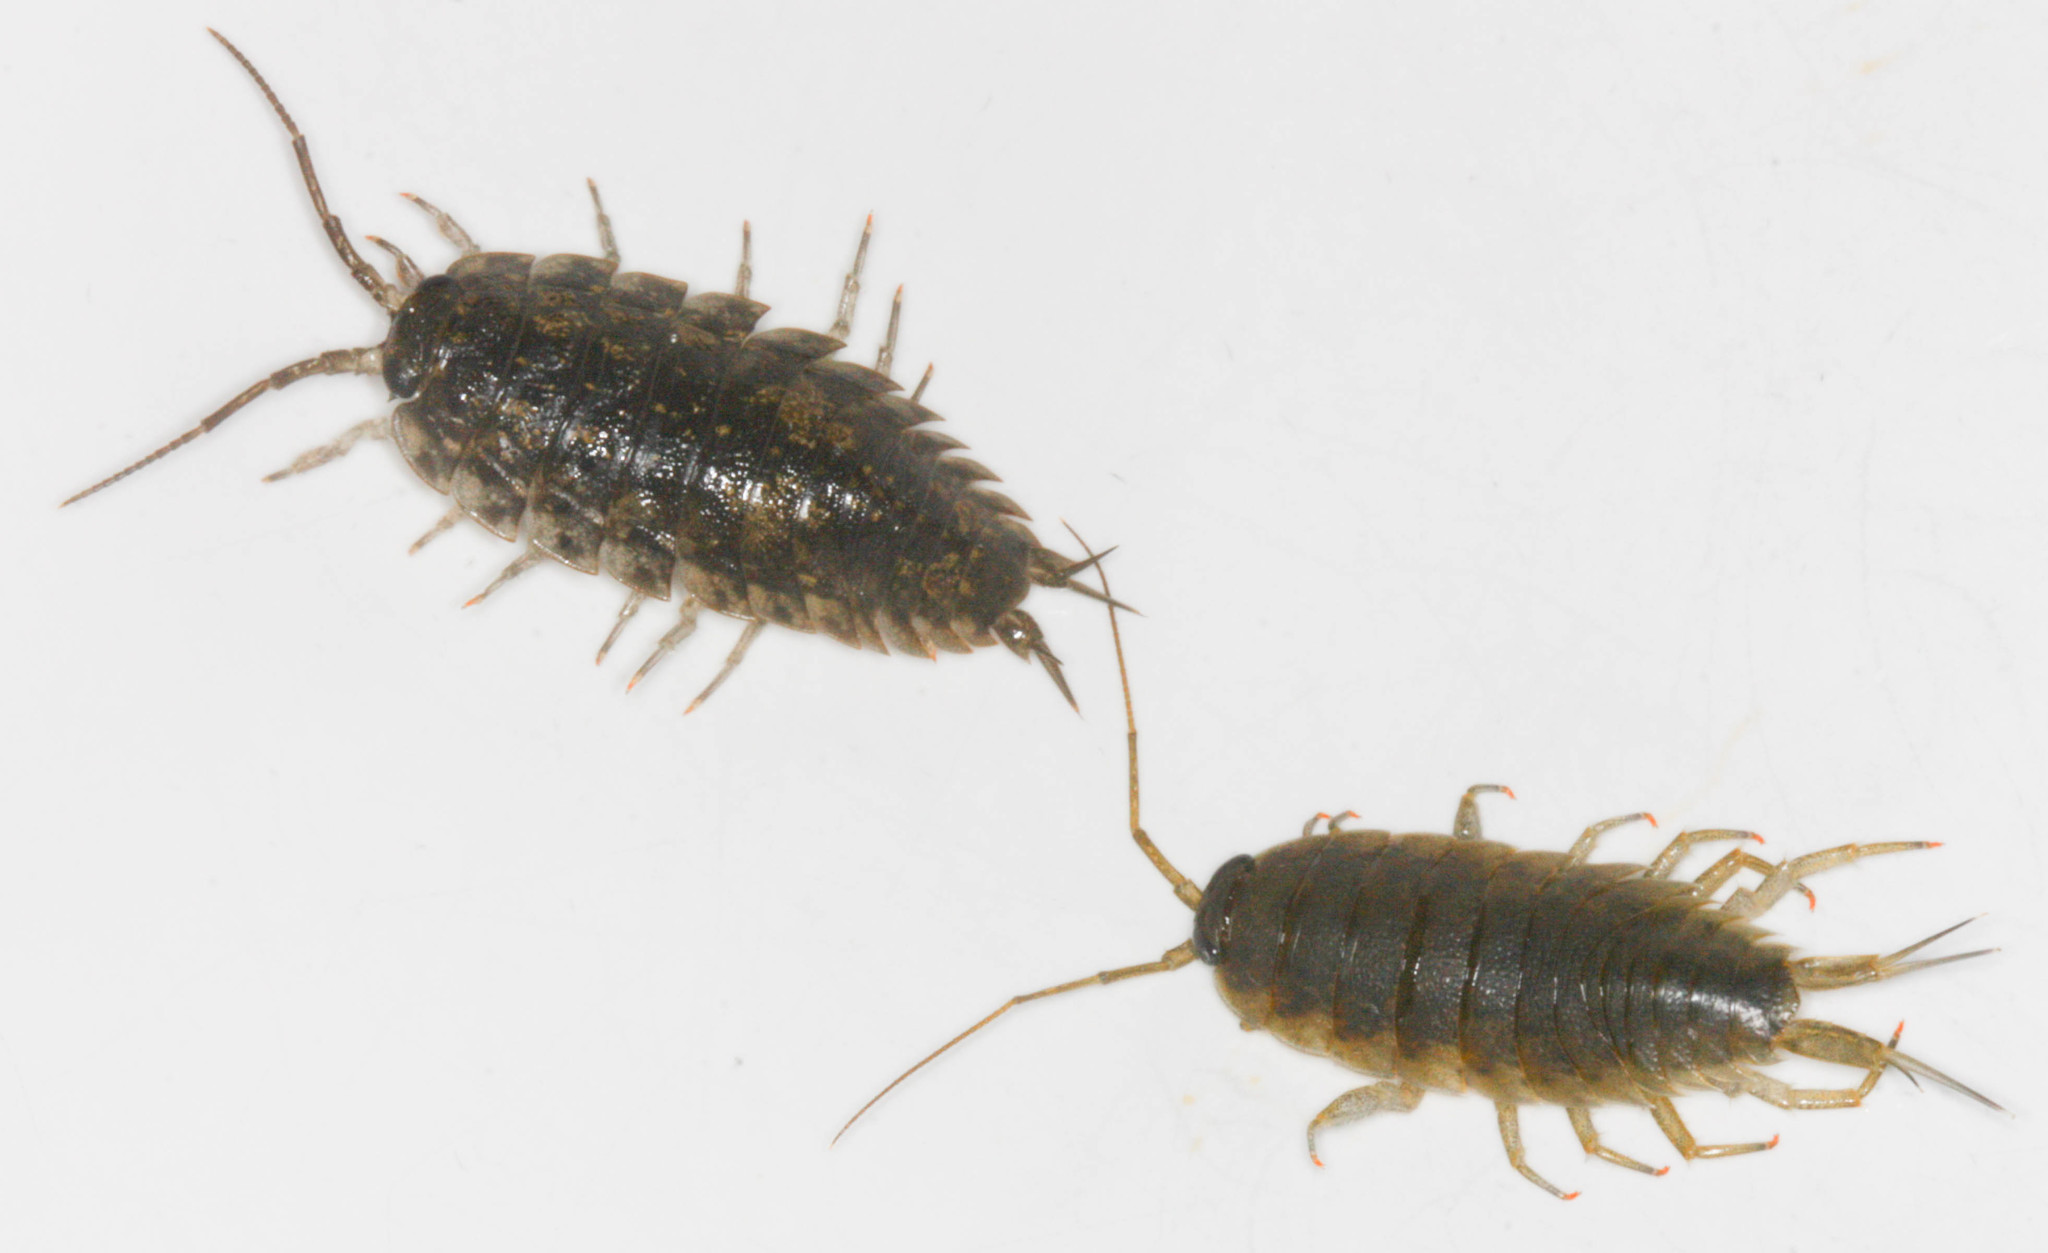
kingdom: Animalia
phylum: Arthropoda
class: Malacostraca
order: Isopoda
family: Ligiidae
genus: Ligia
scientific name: Ligia pallasii
